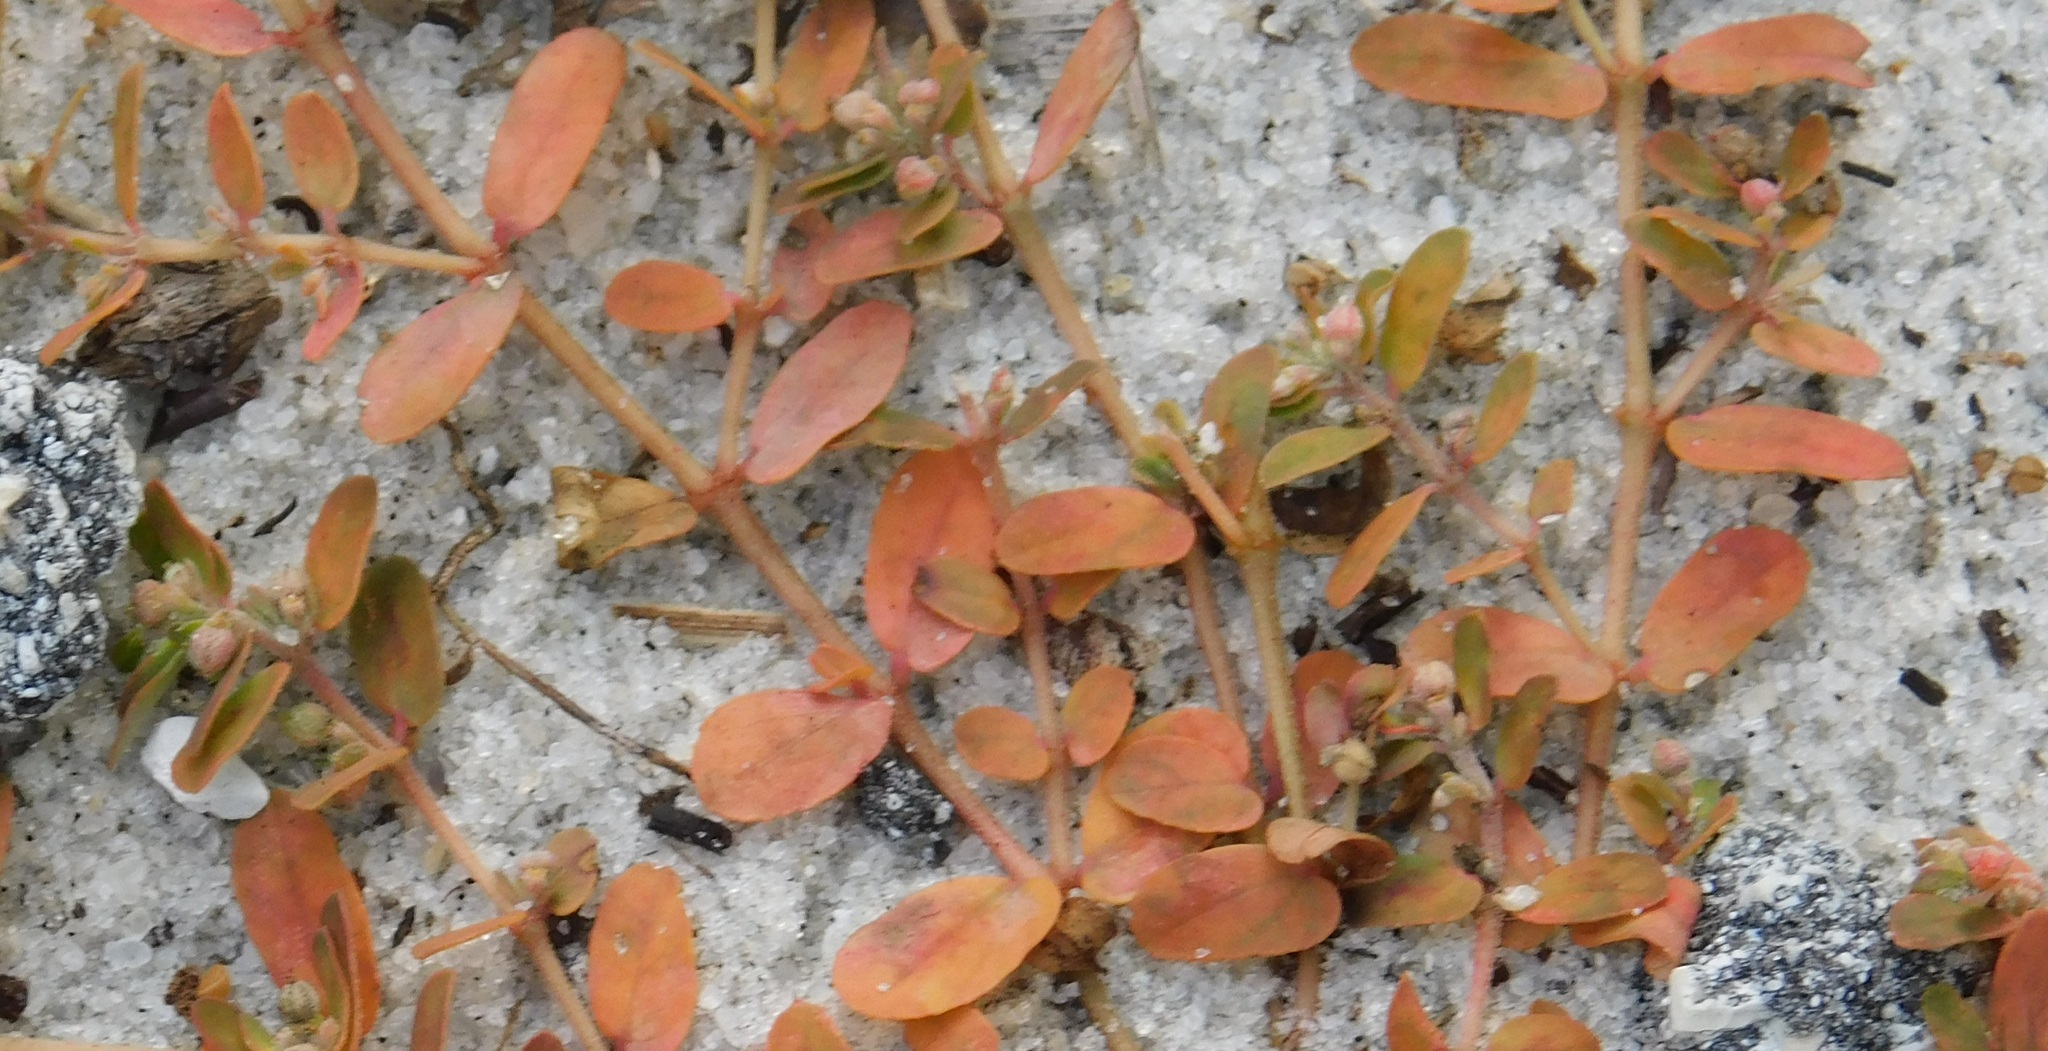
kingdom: Plantae
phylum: Tracheophyta
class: Magnoliopsida
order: Malpighiales
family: Euphorbiaceae
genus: Euphorbia
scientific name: Euphorbia maculata
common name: Spotted spurge
